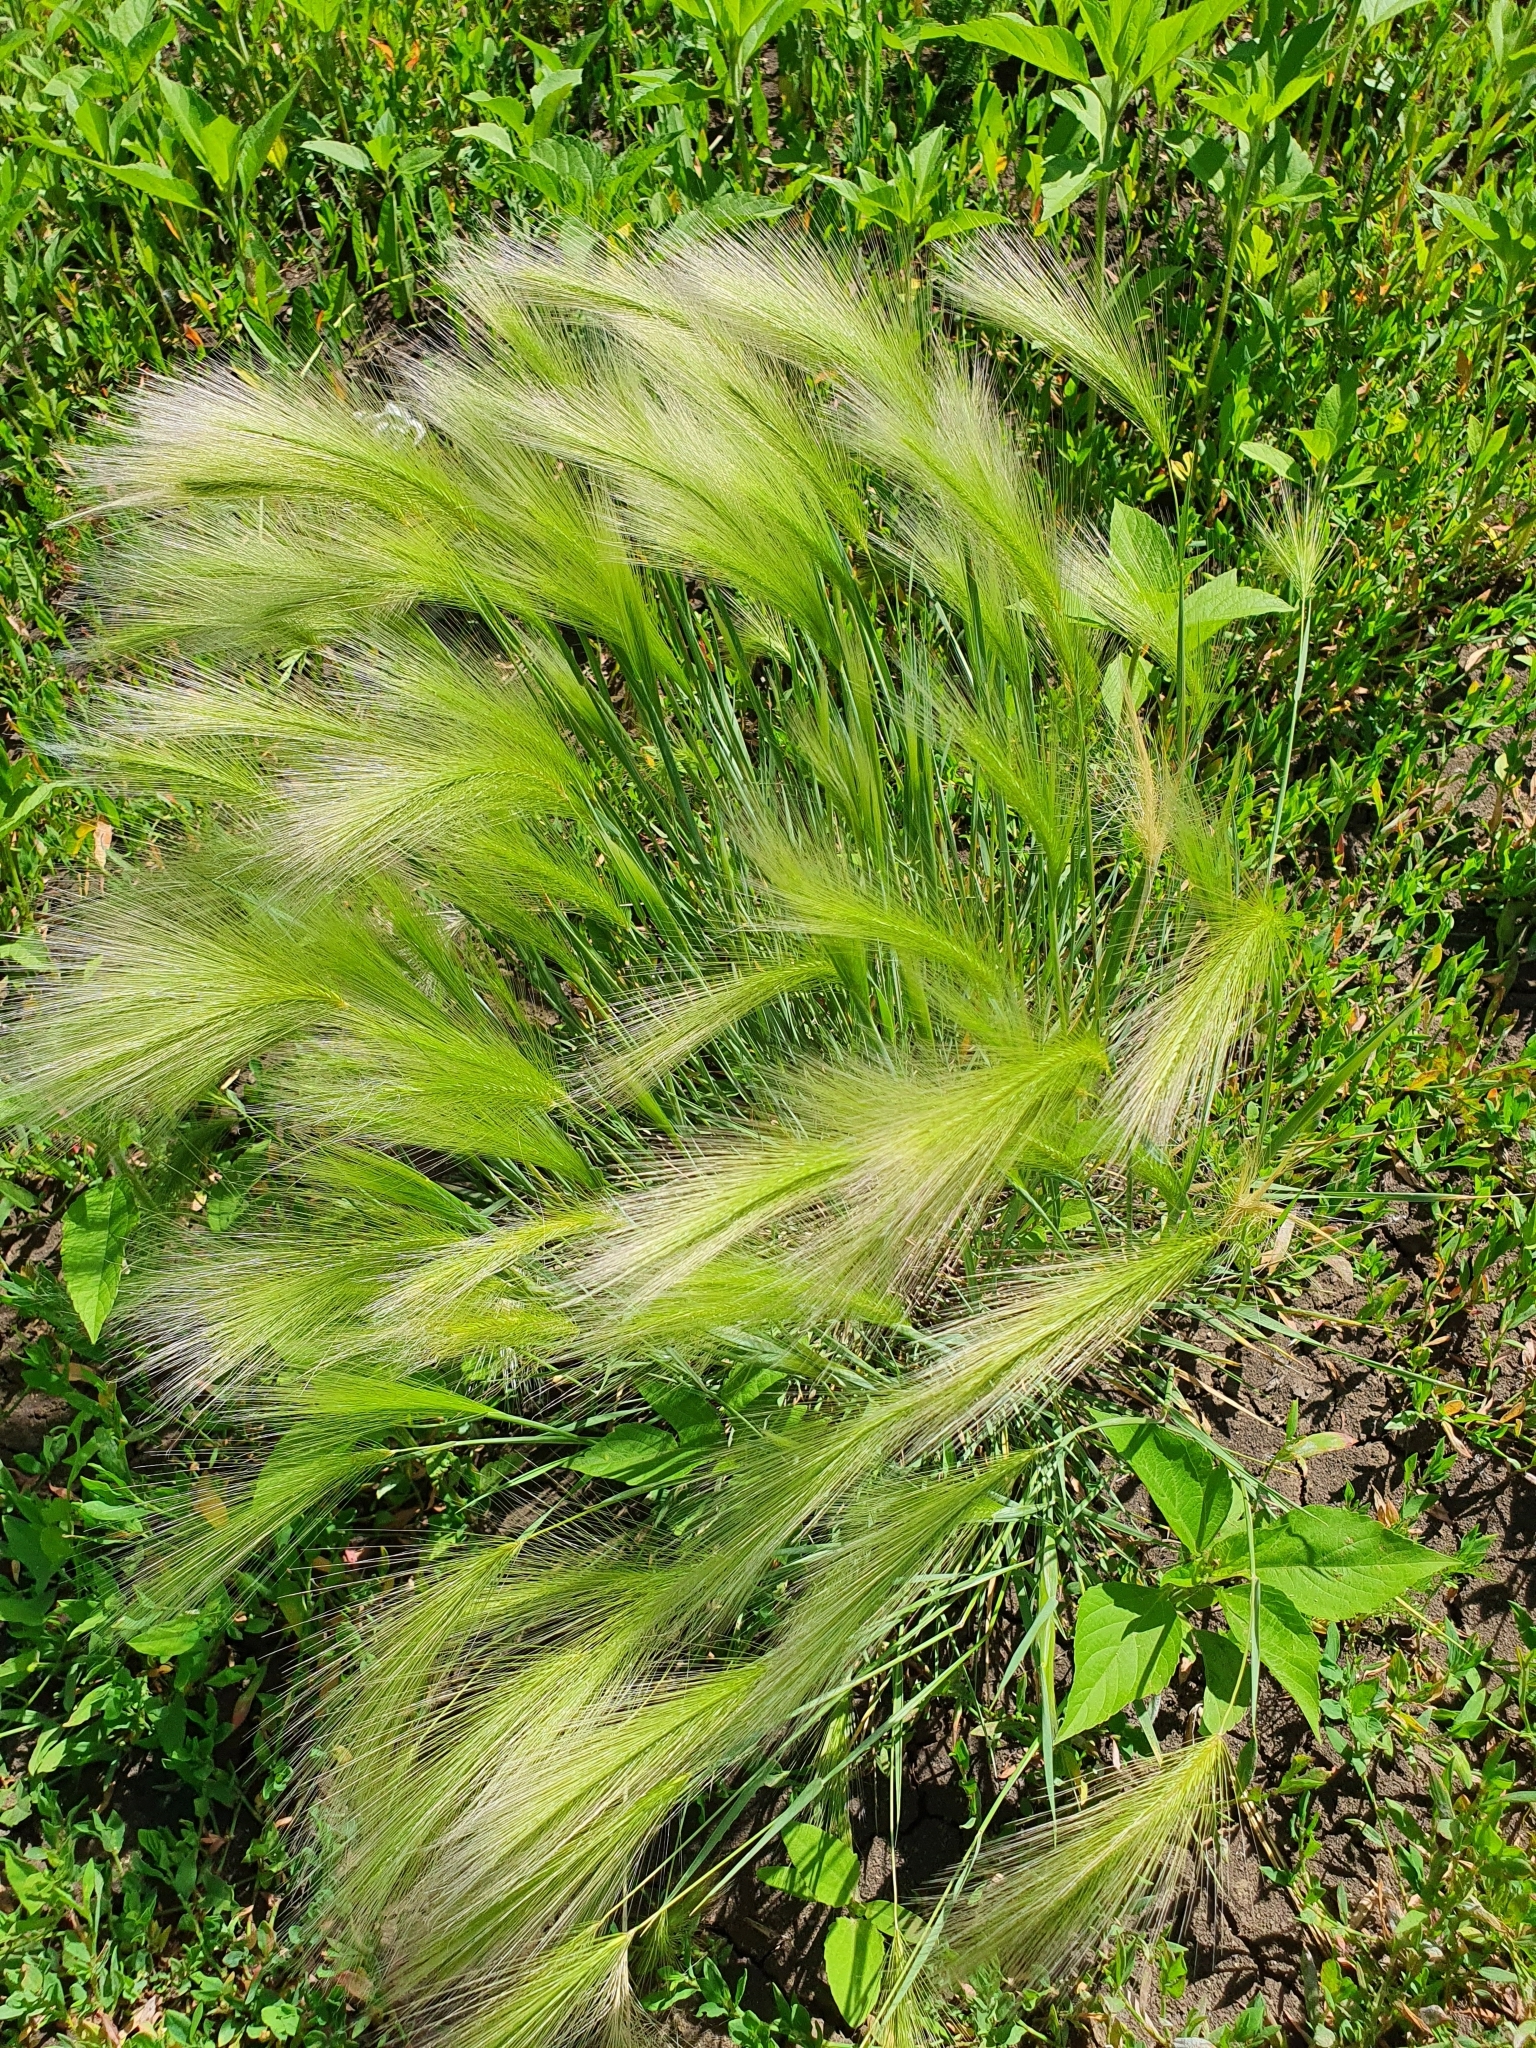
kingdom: Plantae
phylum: Tracheophyta
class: Liliopsida
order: Poales
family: Poaceae
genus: Hordeum
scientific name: Hordeum jubatum
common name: Foxtail barley
